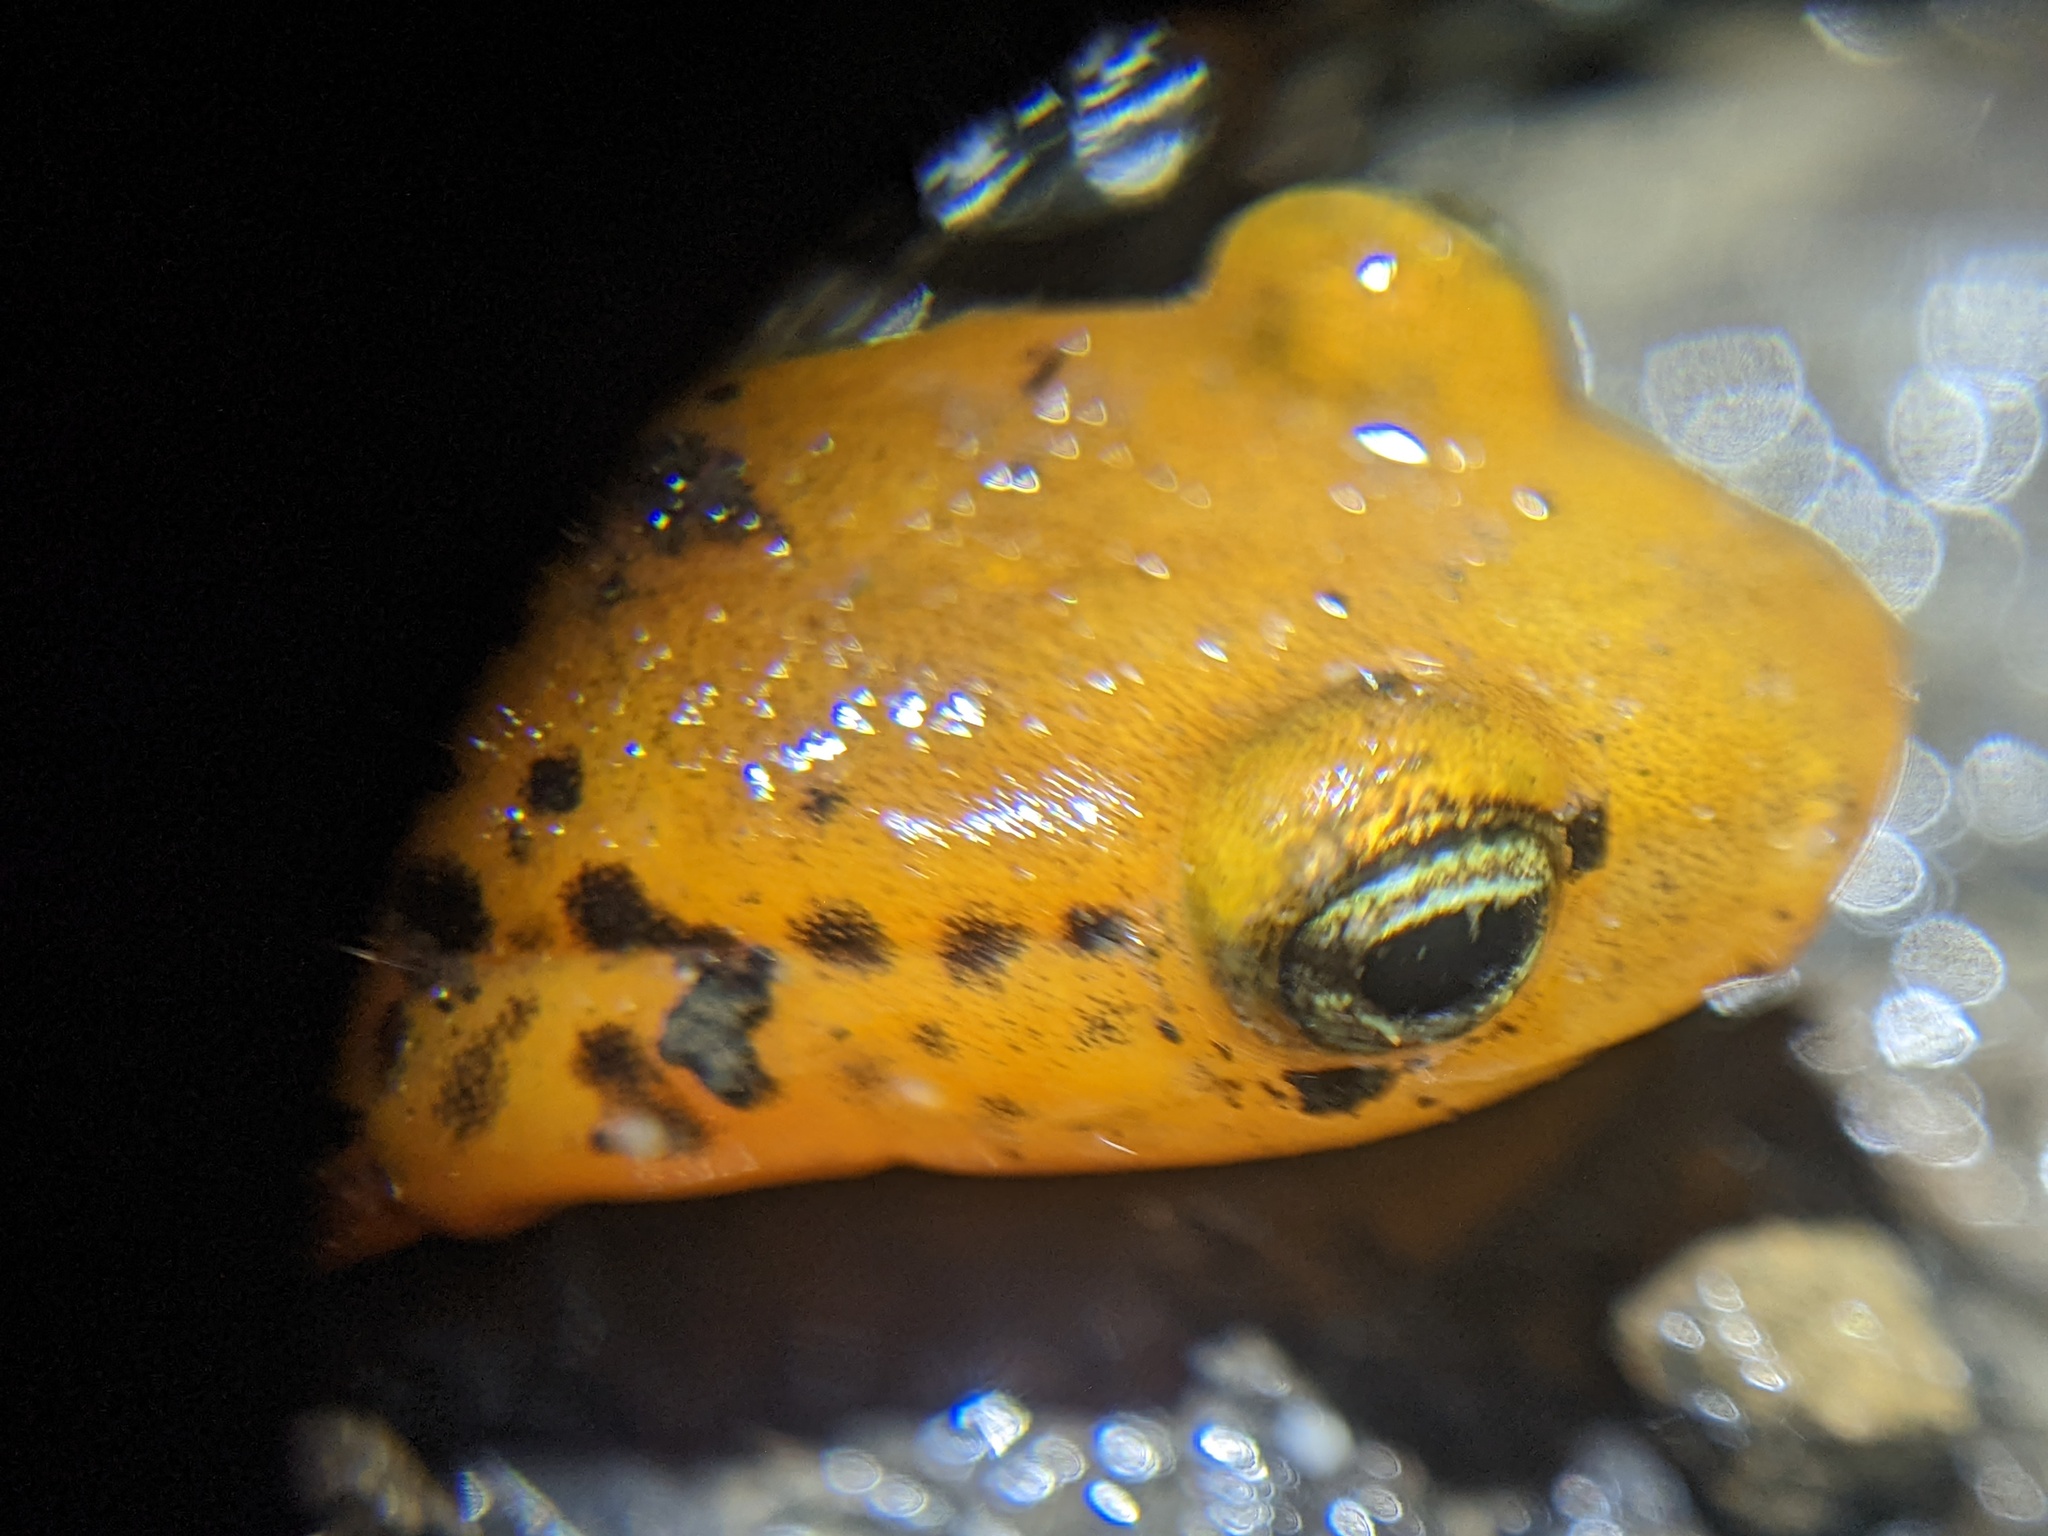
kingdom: Animalia
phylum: Chordata
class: Amphibia
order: Caudata
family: Plethodontidae
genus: Eurycea
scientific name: Eurycea longicauda
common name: Long-tailed salamander
